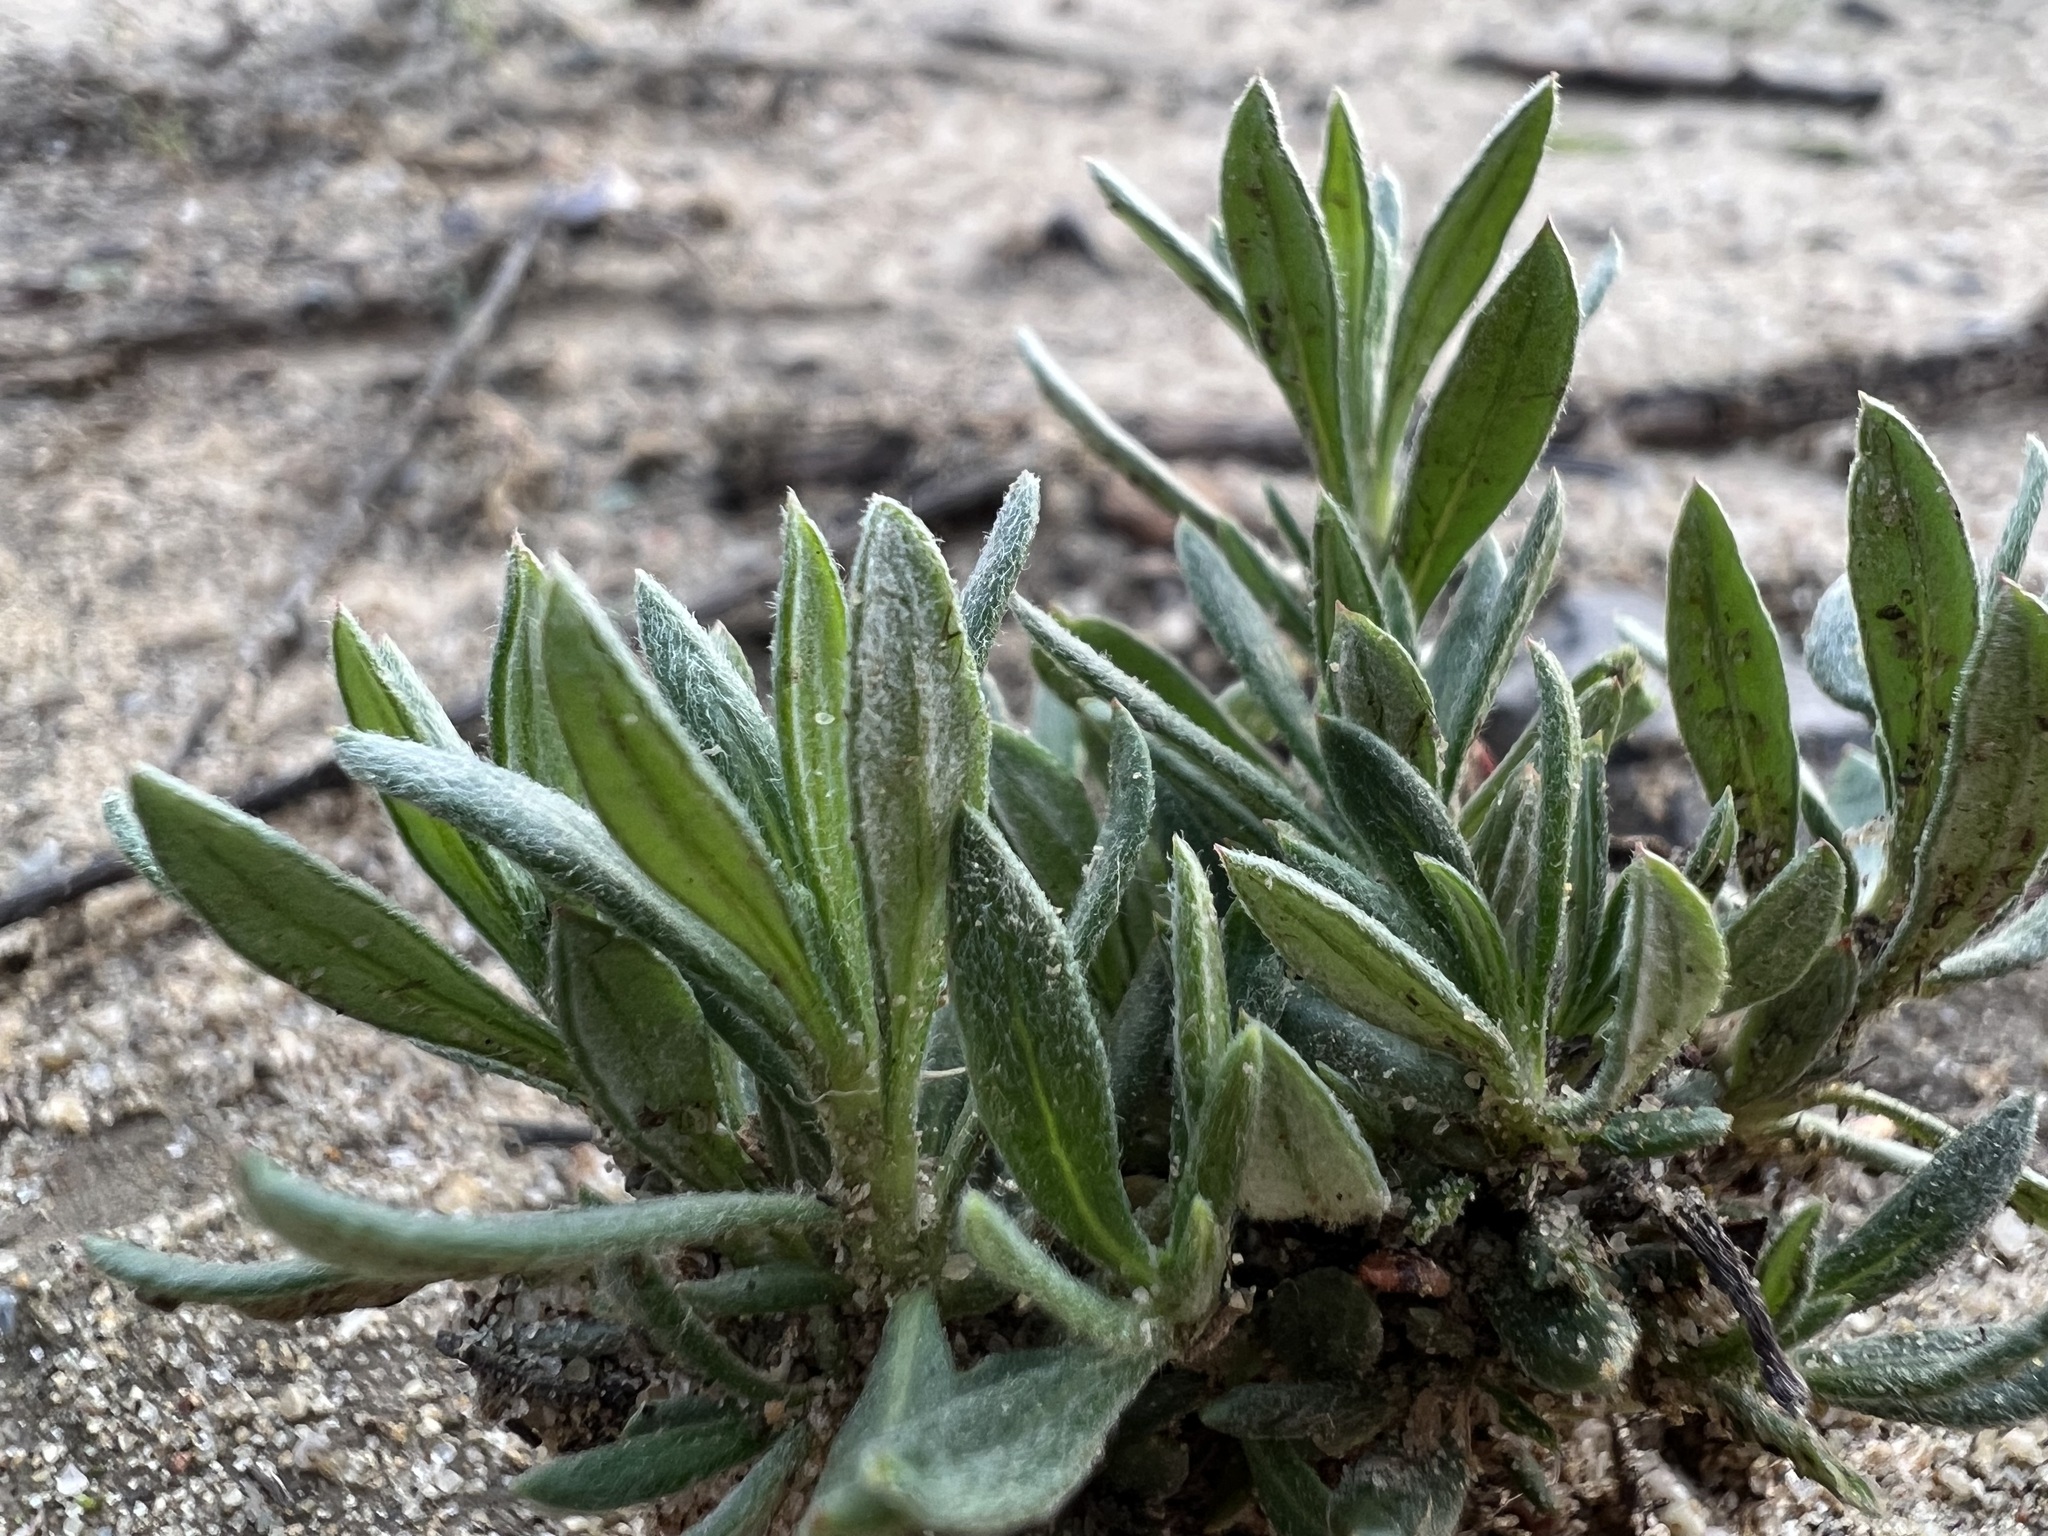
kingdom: Plantae
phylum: Tracheophyta
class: Magnoliopsida
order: Caryophyllales
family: Polygonaceae
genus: Eriogonum
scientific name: Eriogonum fasciculatum
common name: California wild buckwheat
